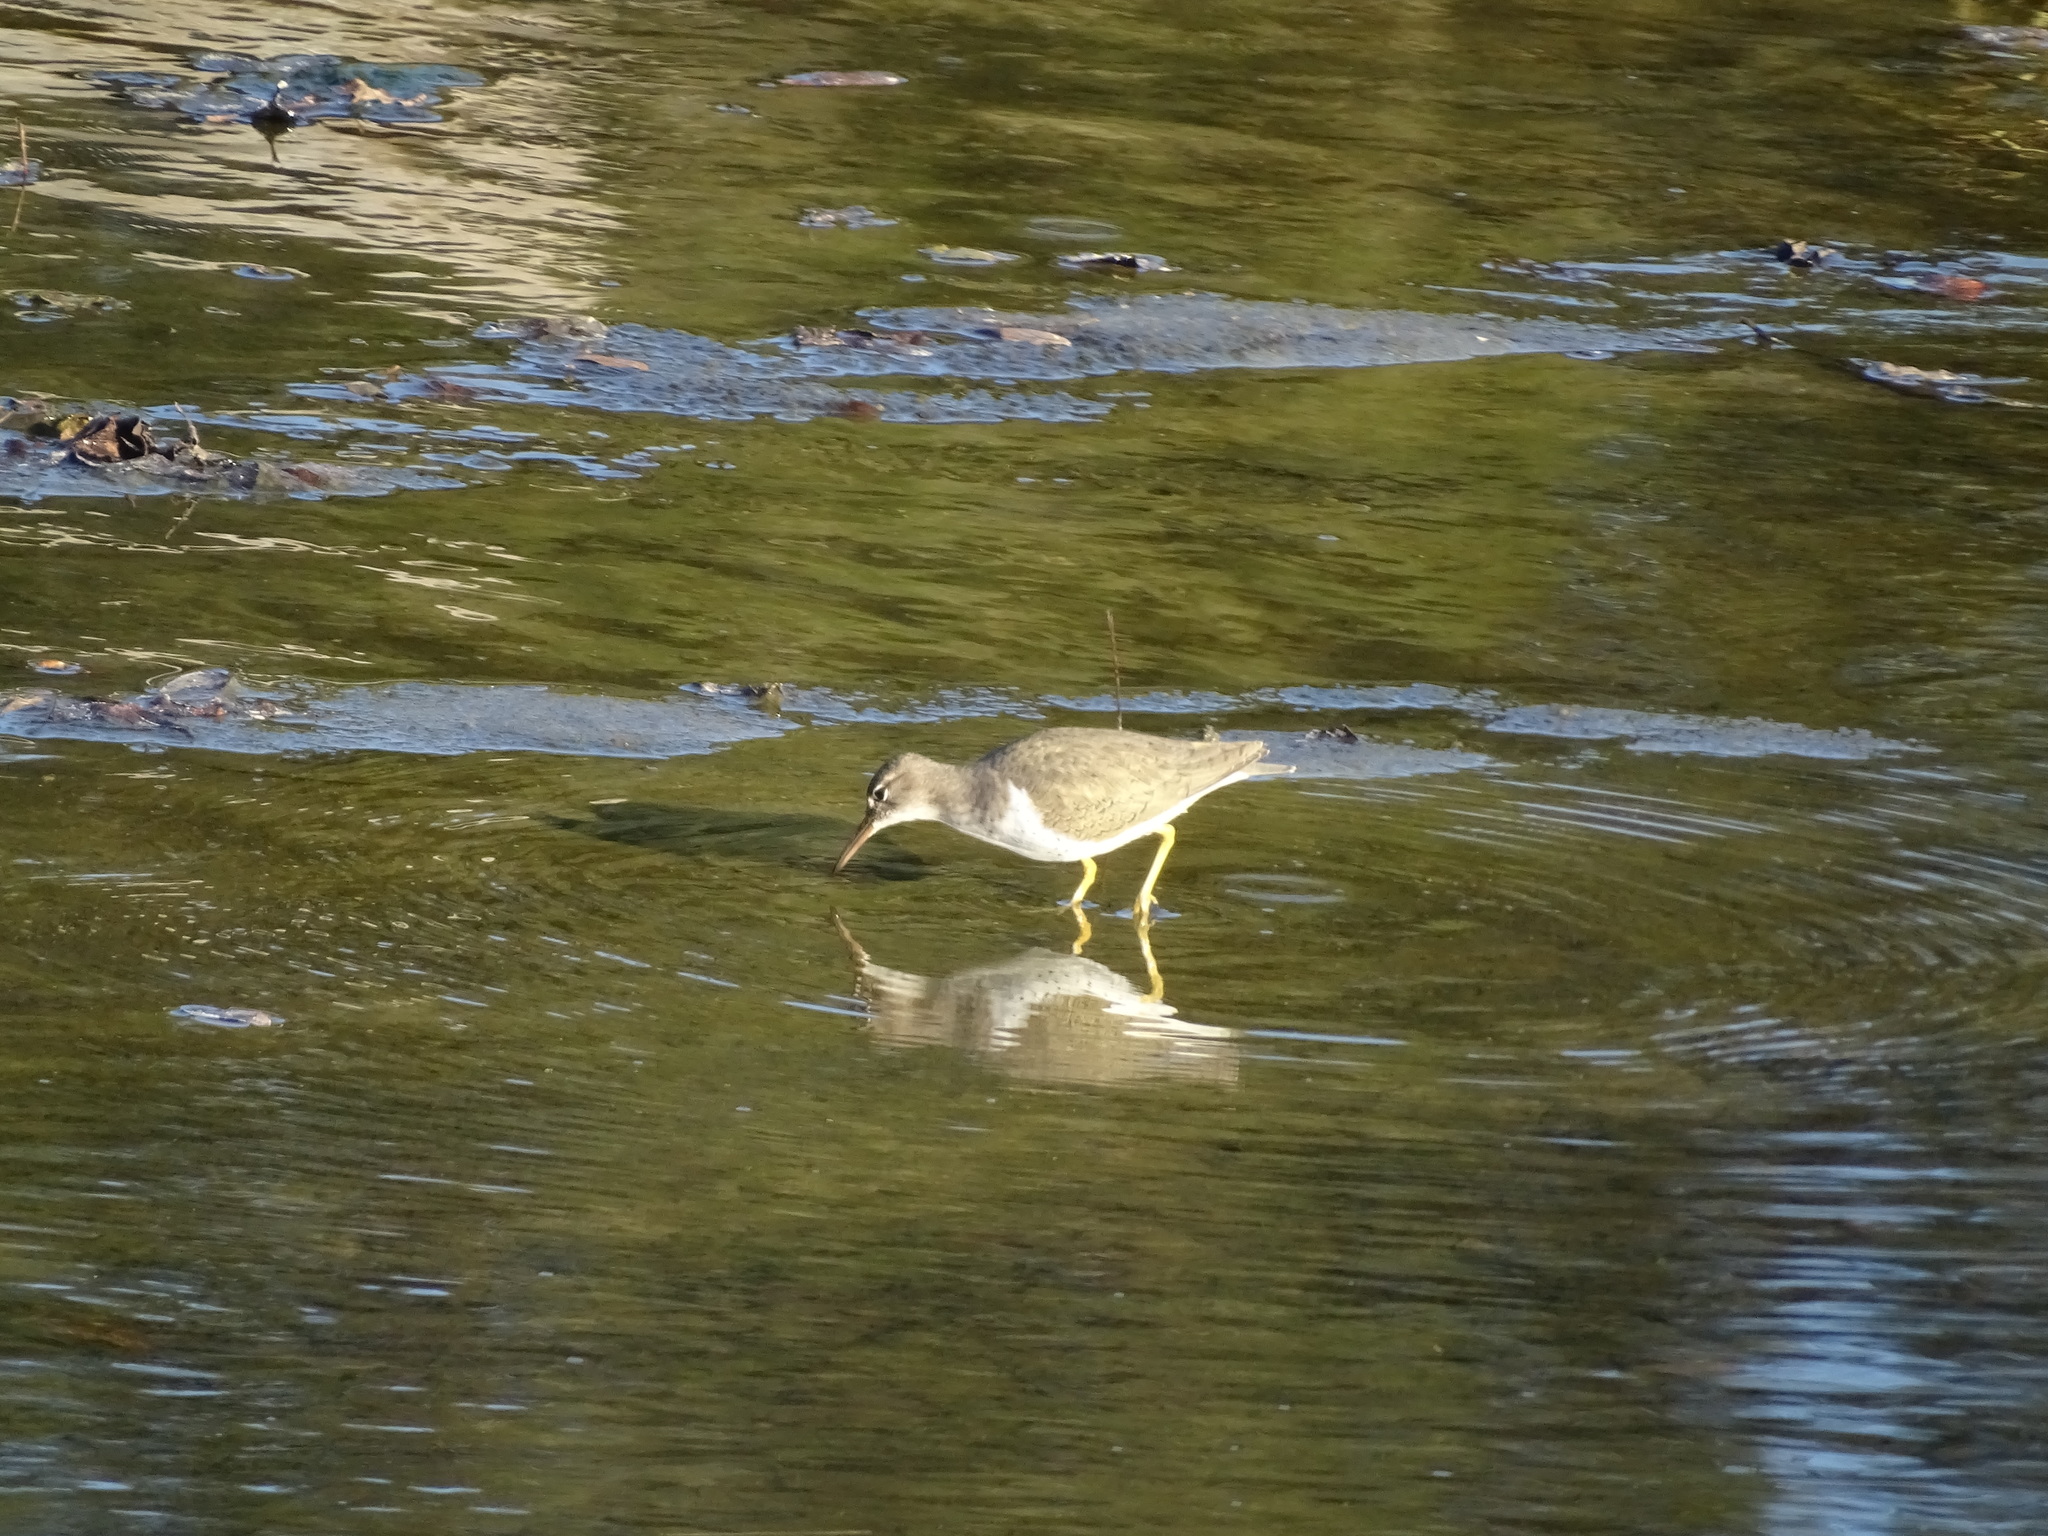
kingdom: Animalia
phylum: Chordata
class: Aves
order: Charadriiformes
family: Scolopacidae
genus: Actitis
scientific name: Actitis macularius
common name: Spotted sandpiper
